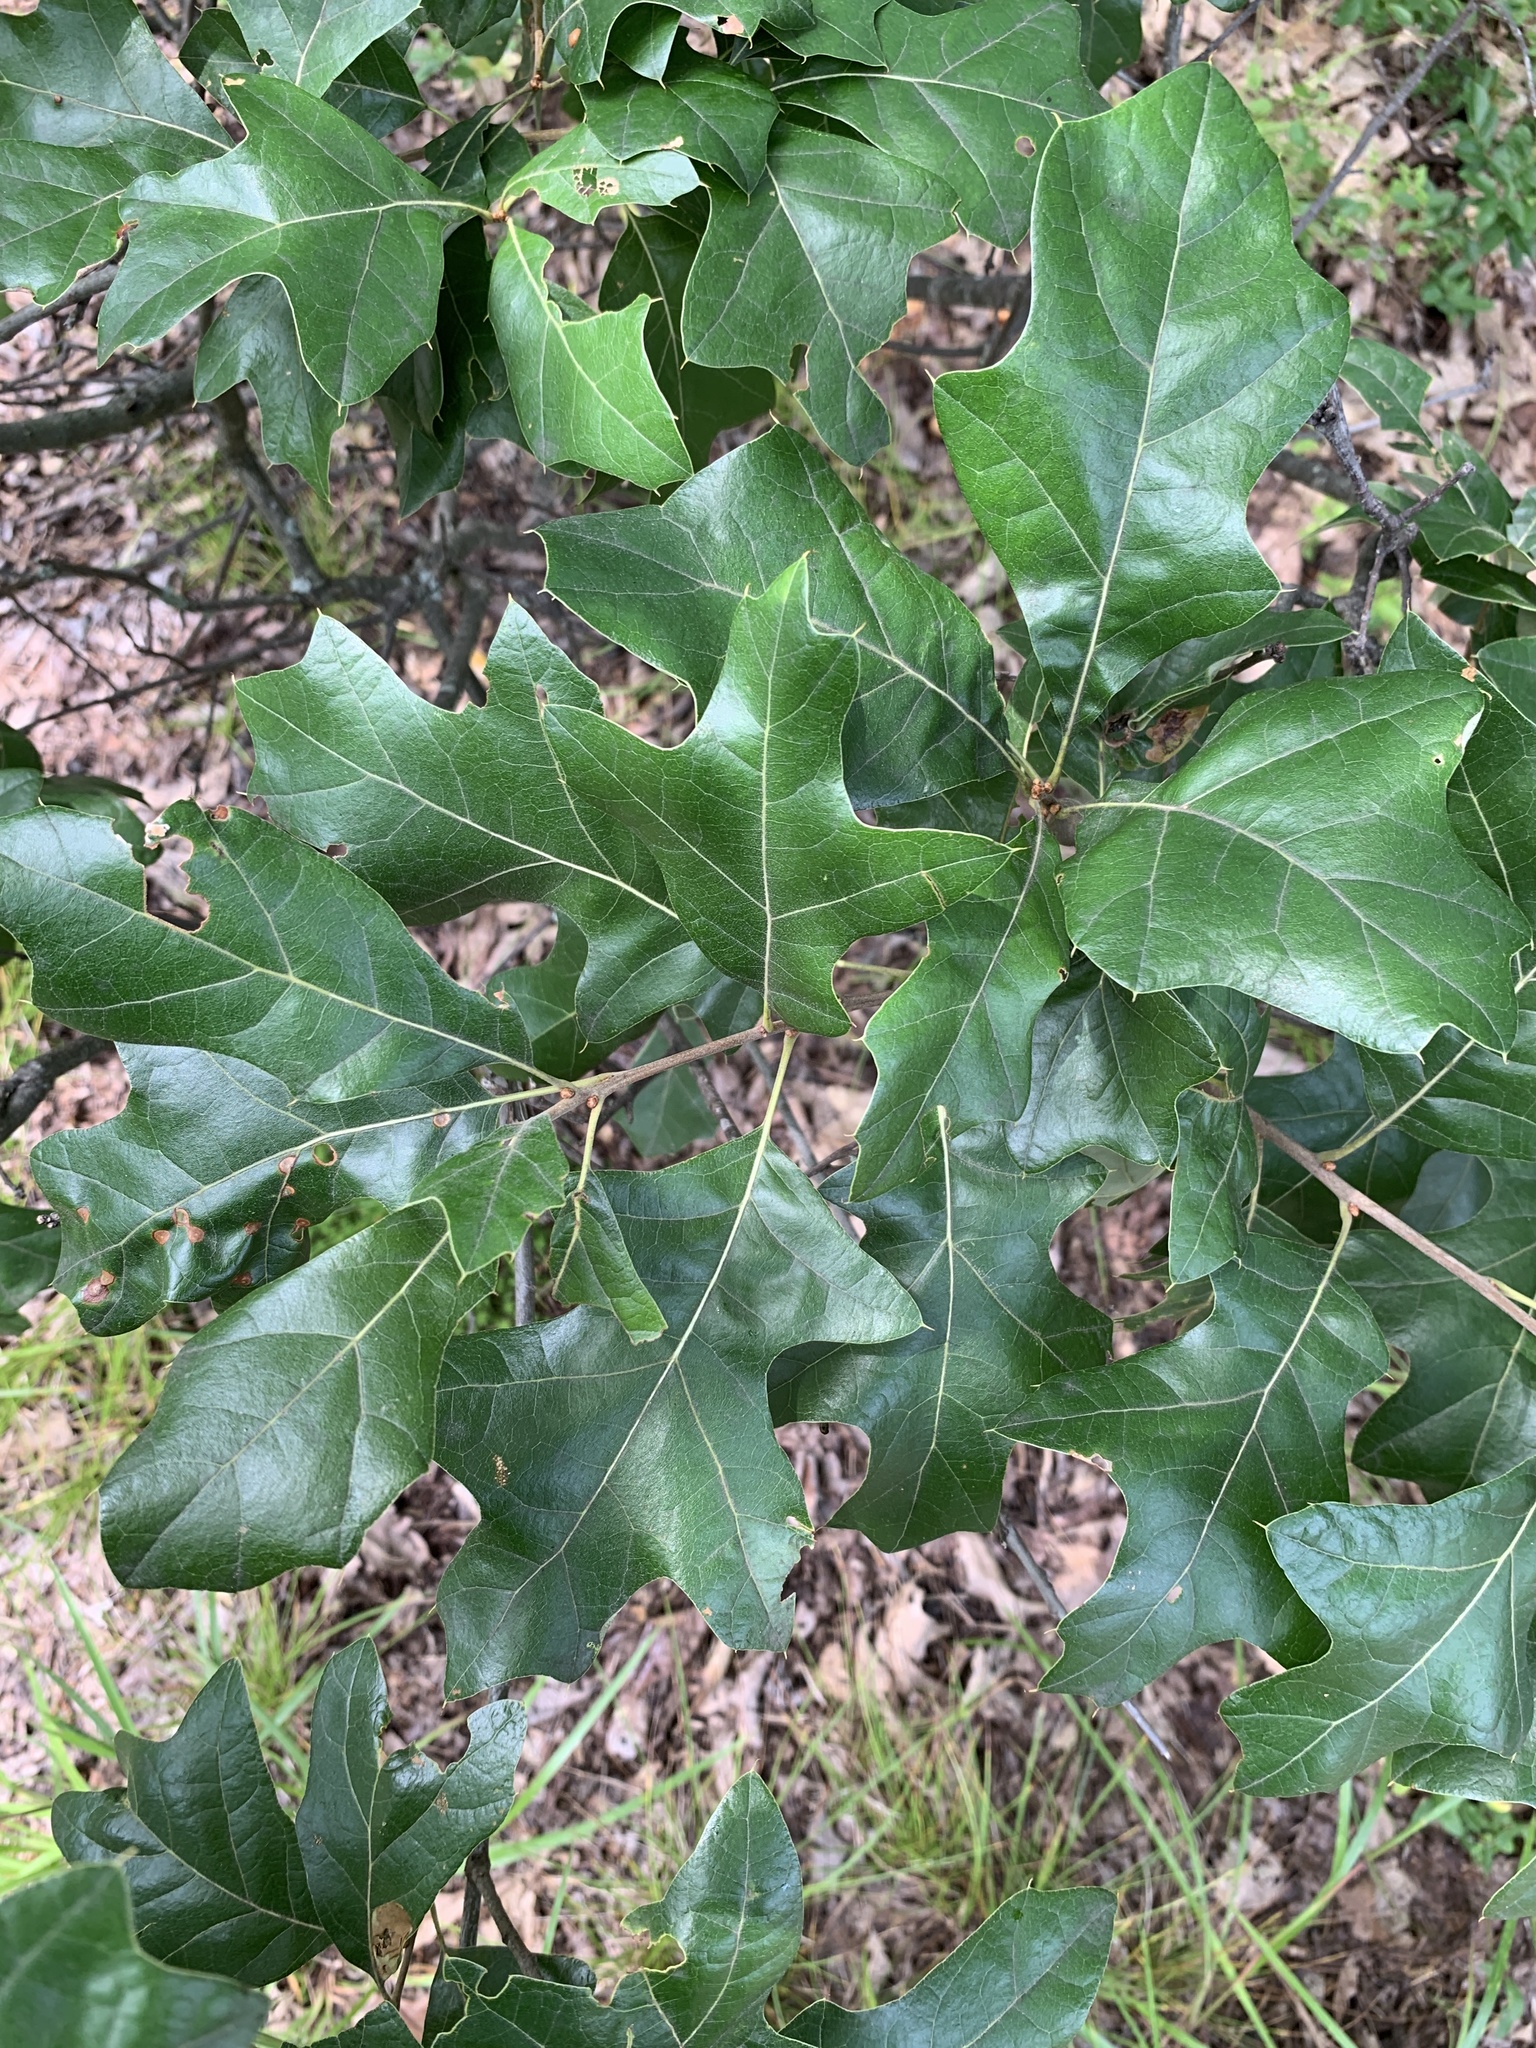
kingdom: Plantae
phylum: Tracheophyta
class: Magnoliopsida
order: Fagales
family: Fagaceae
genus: Quercus
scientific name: Quercus ilicifolia
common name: Bear oak
